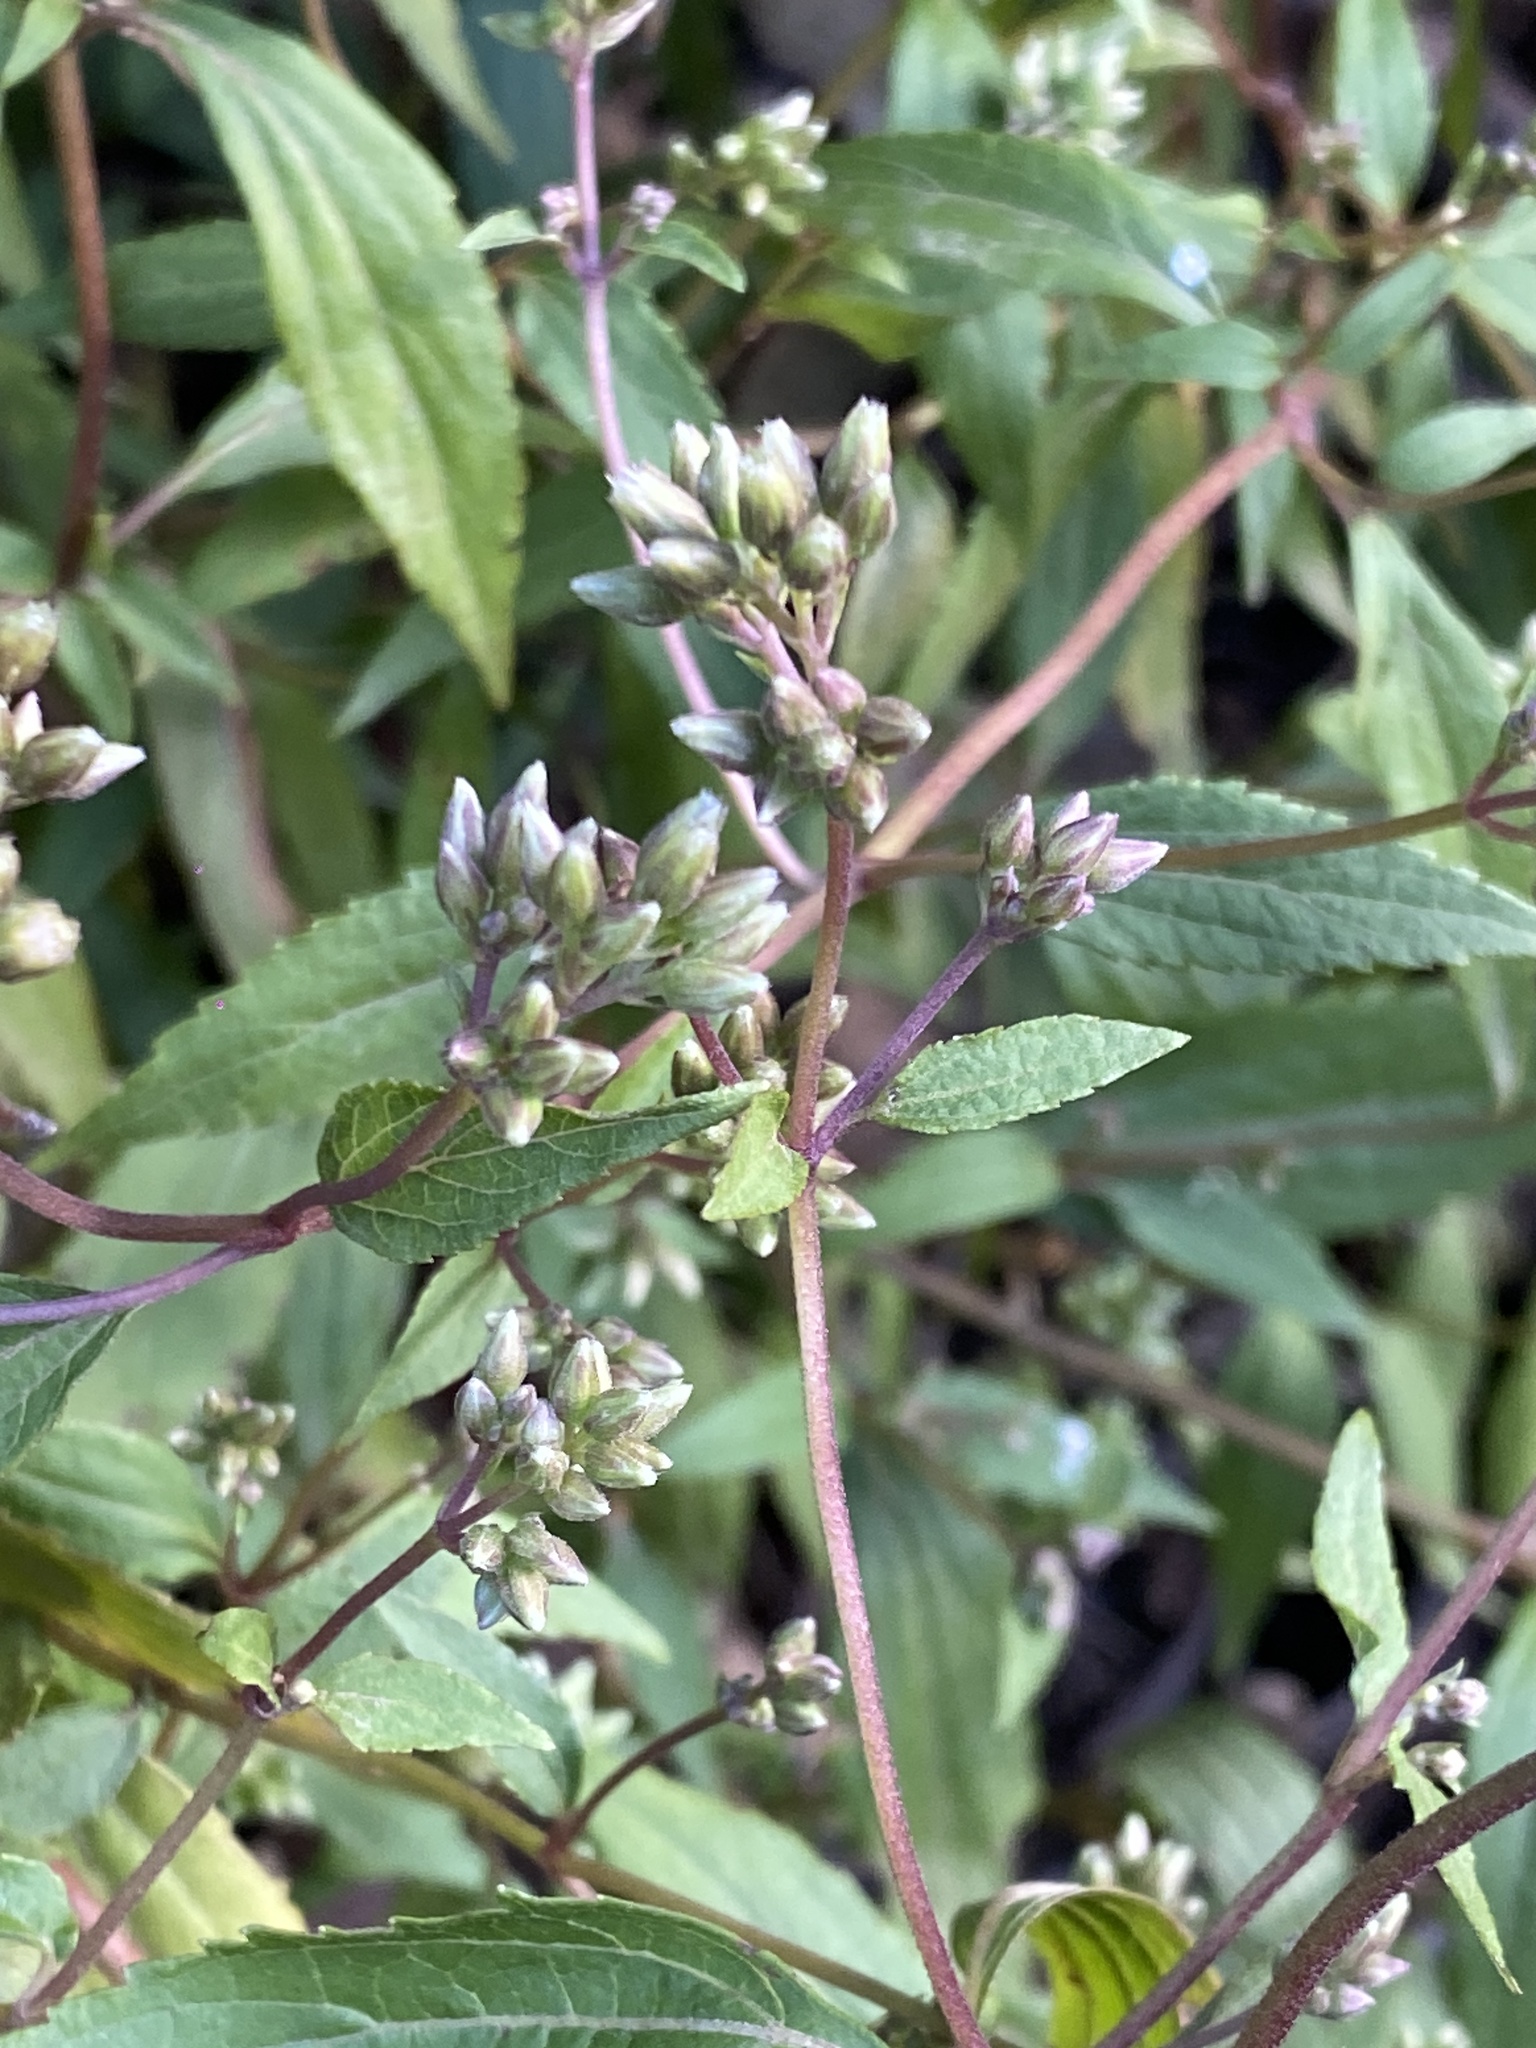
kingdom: Plantae
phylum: Tracheophyta
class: Magnoliopsida
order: Asterales
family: Asteraceae
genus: Ageratina
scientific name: Ageratina riparia
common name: Creeping croftonweed
